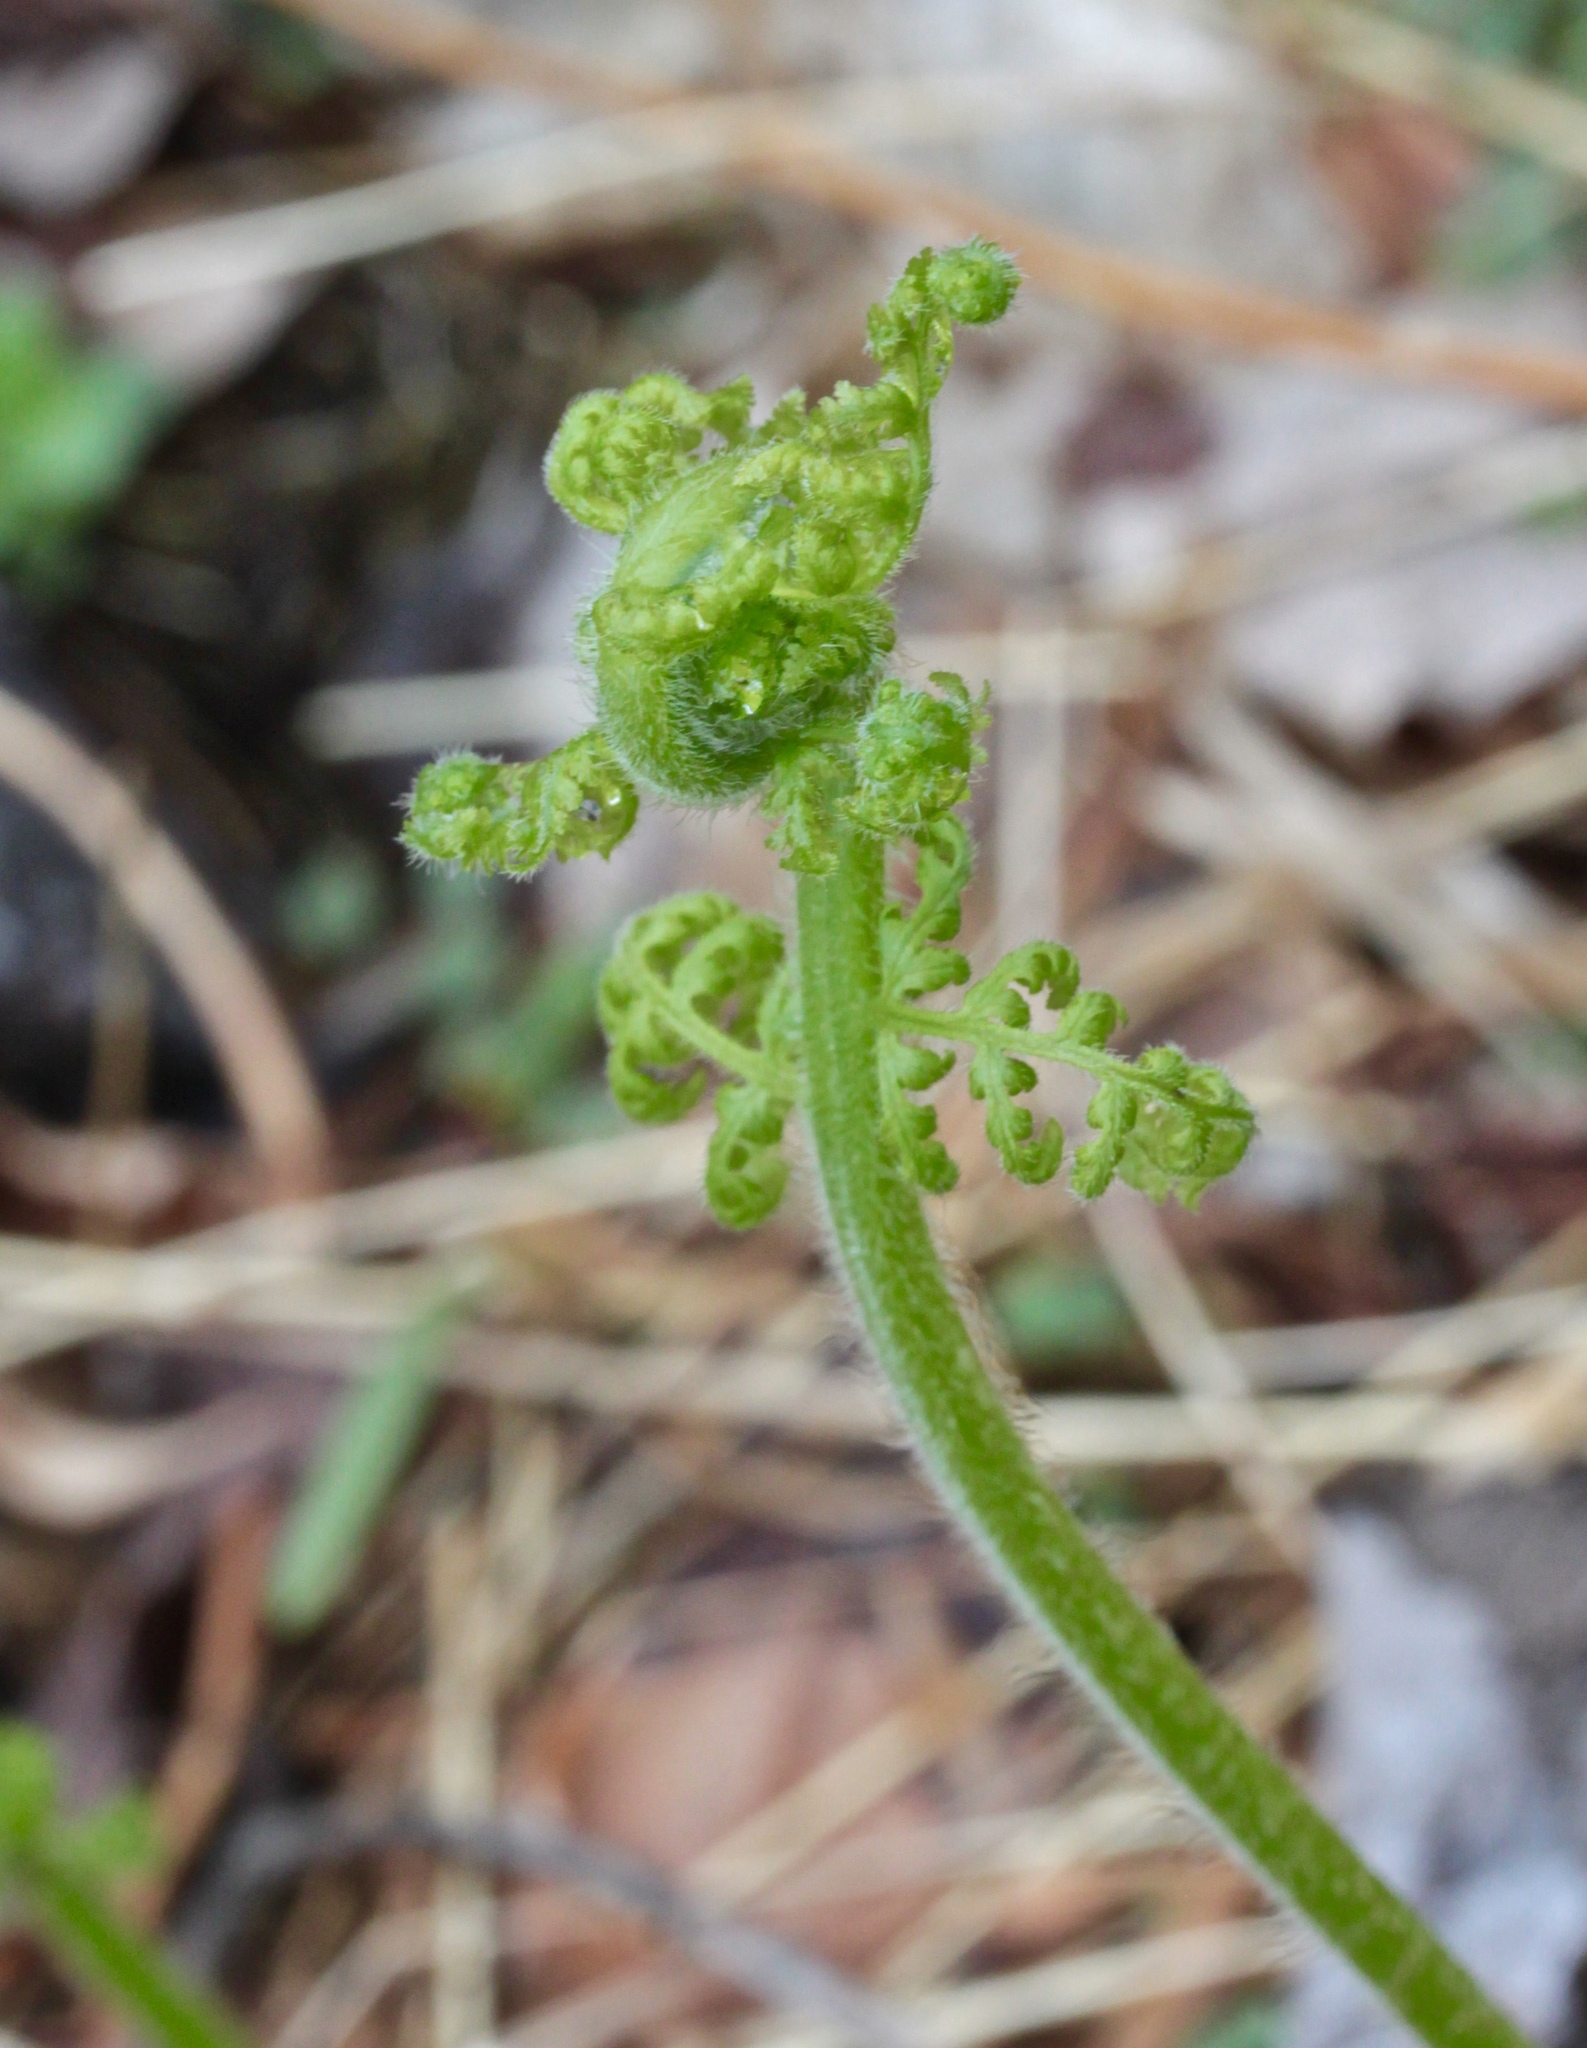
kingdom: Plantae
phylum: Tracheophyta
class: Polypodiopsida
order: Polypodiales
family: Dennstaedtiaceae
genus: Sitobolium
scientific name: Sitobolium punctilobum
